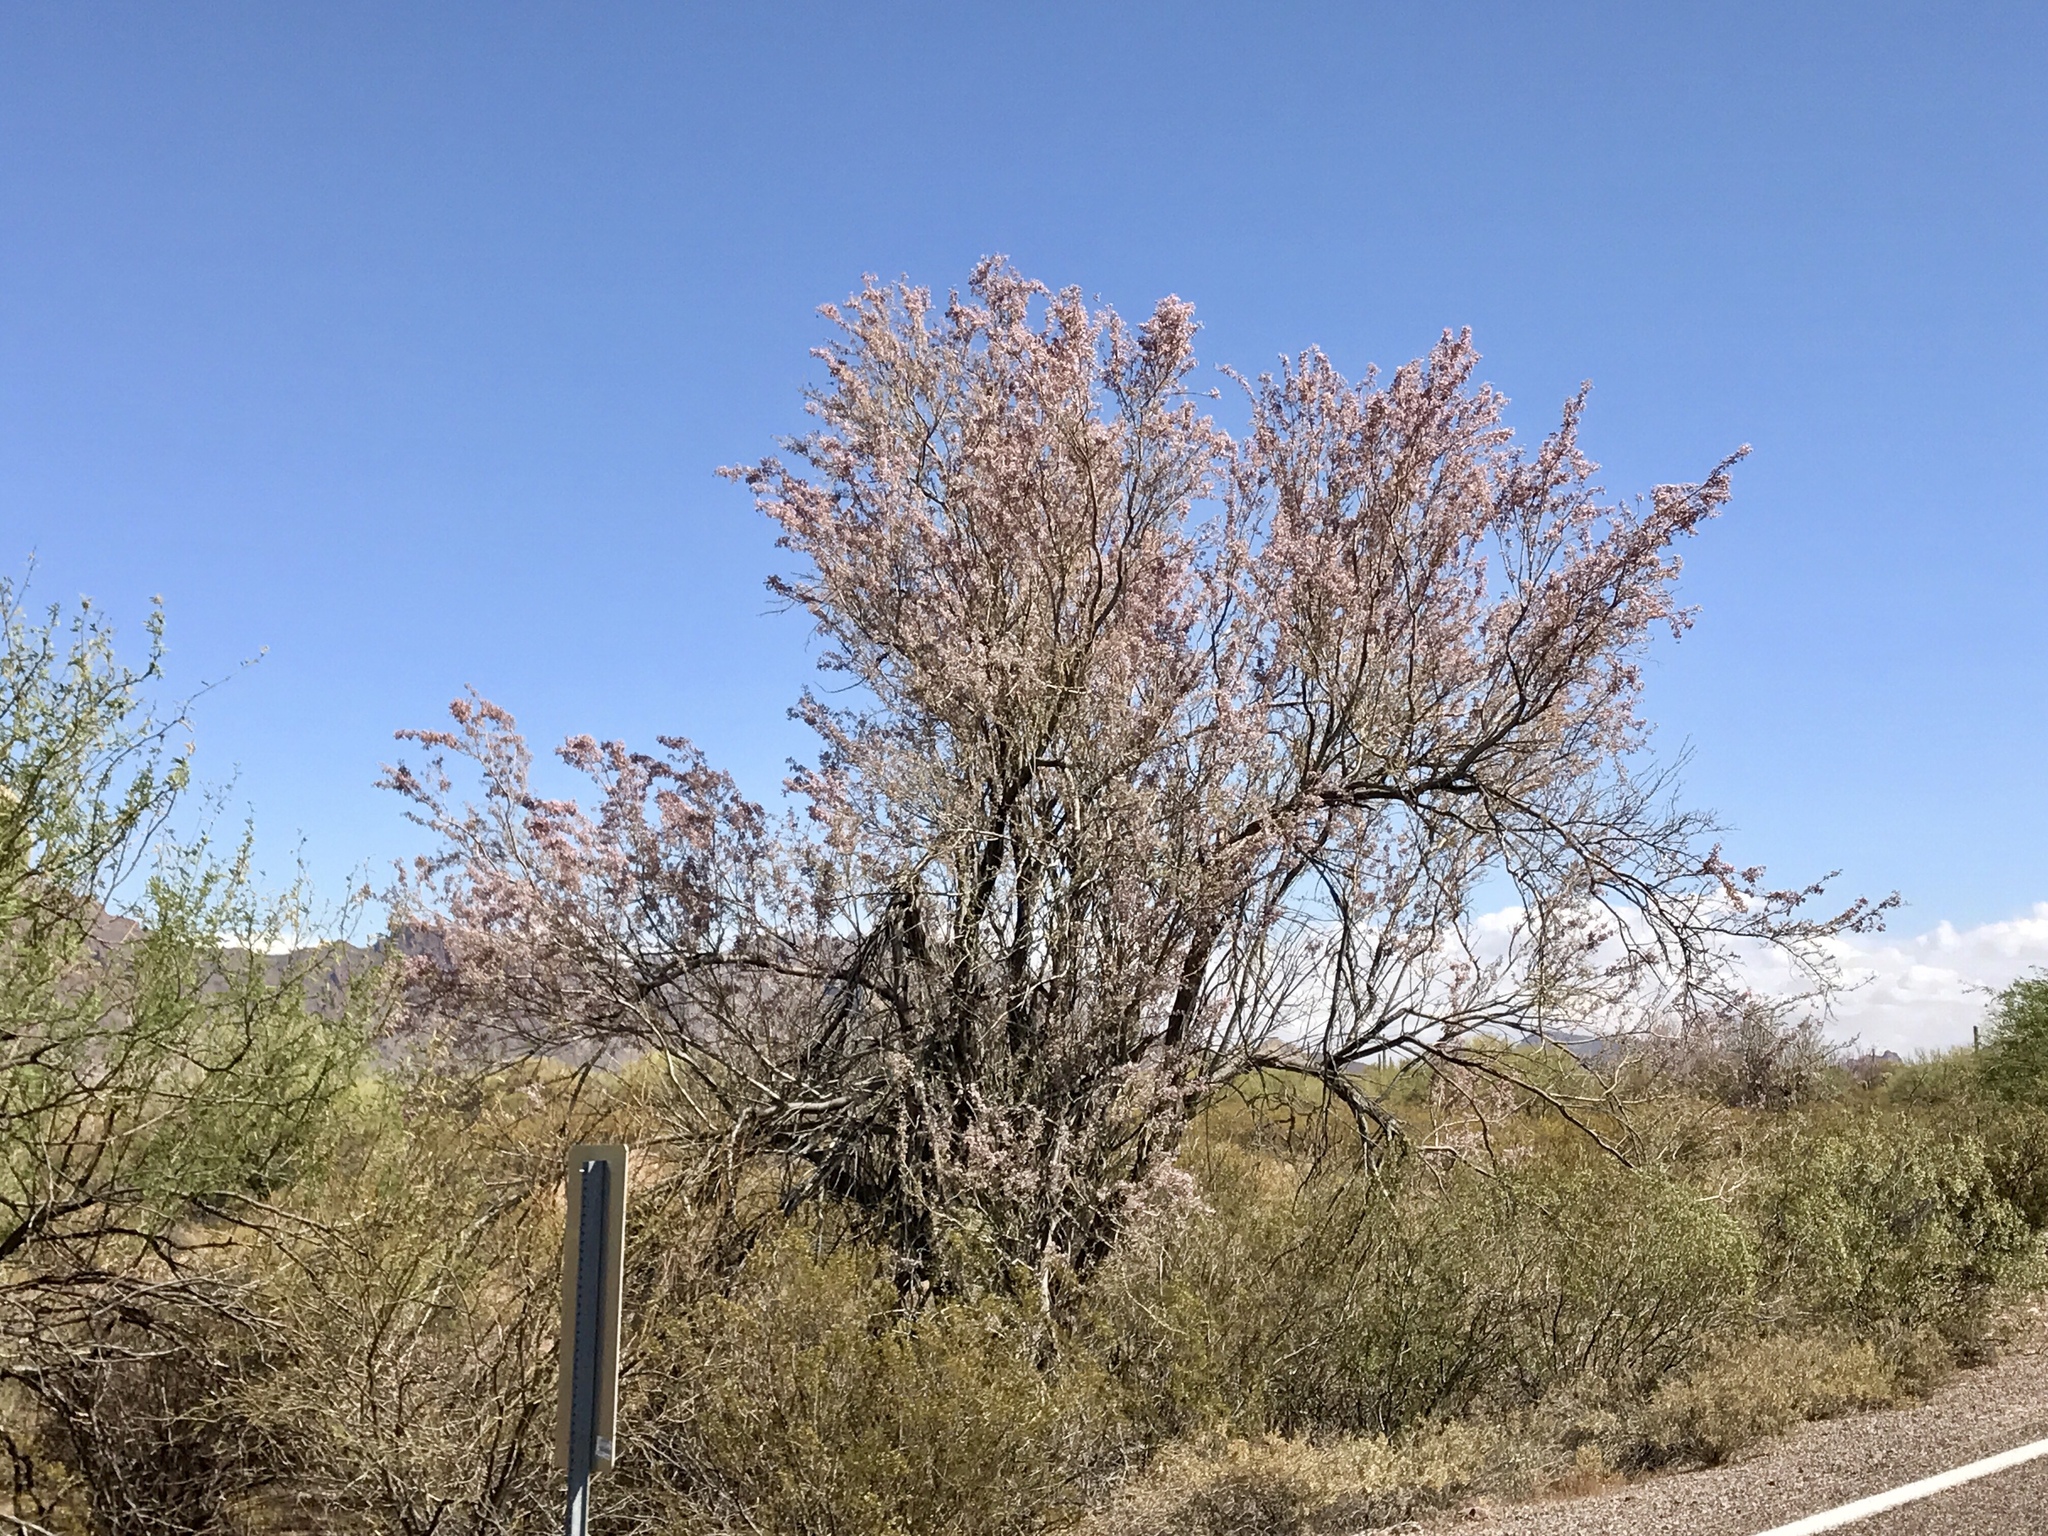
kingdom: Plantae
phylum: Tracheophyta
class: Magnoliopsida
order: Fabales
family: Fabaceae
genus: Olneya
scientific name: Olneya tesota
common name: Desert ironwood
